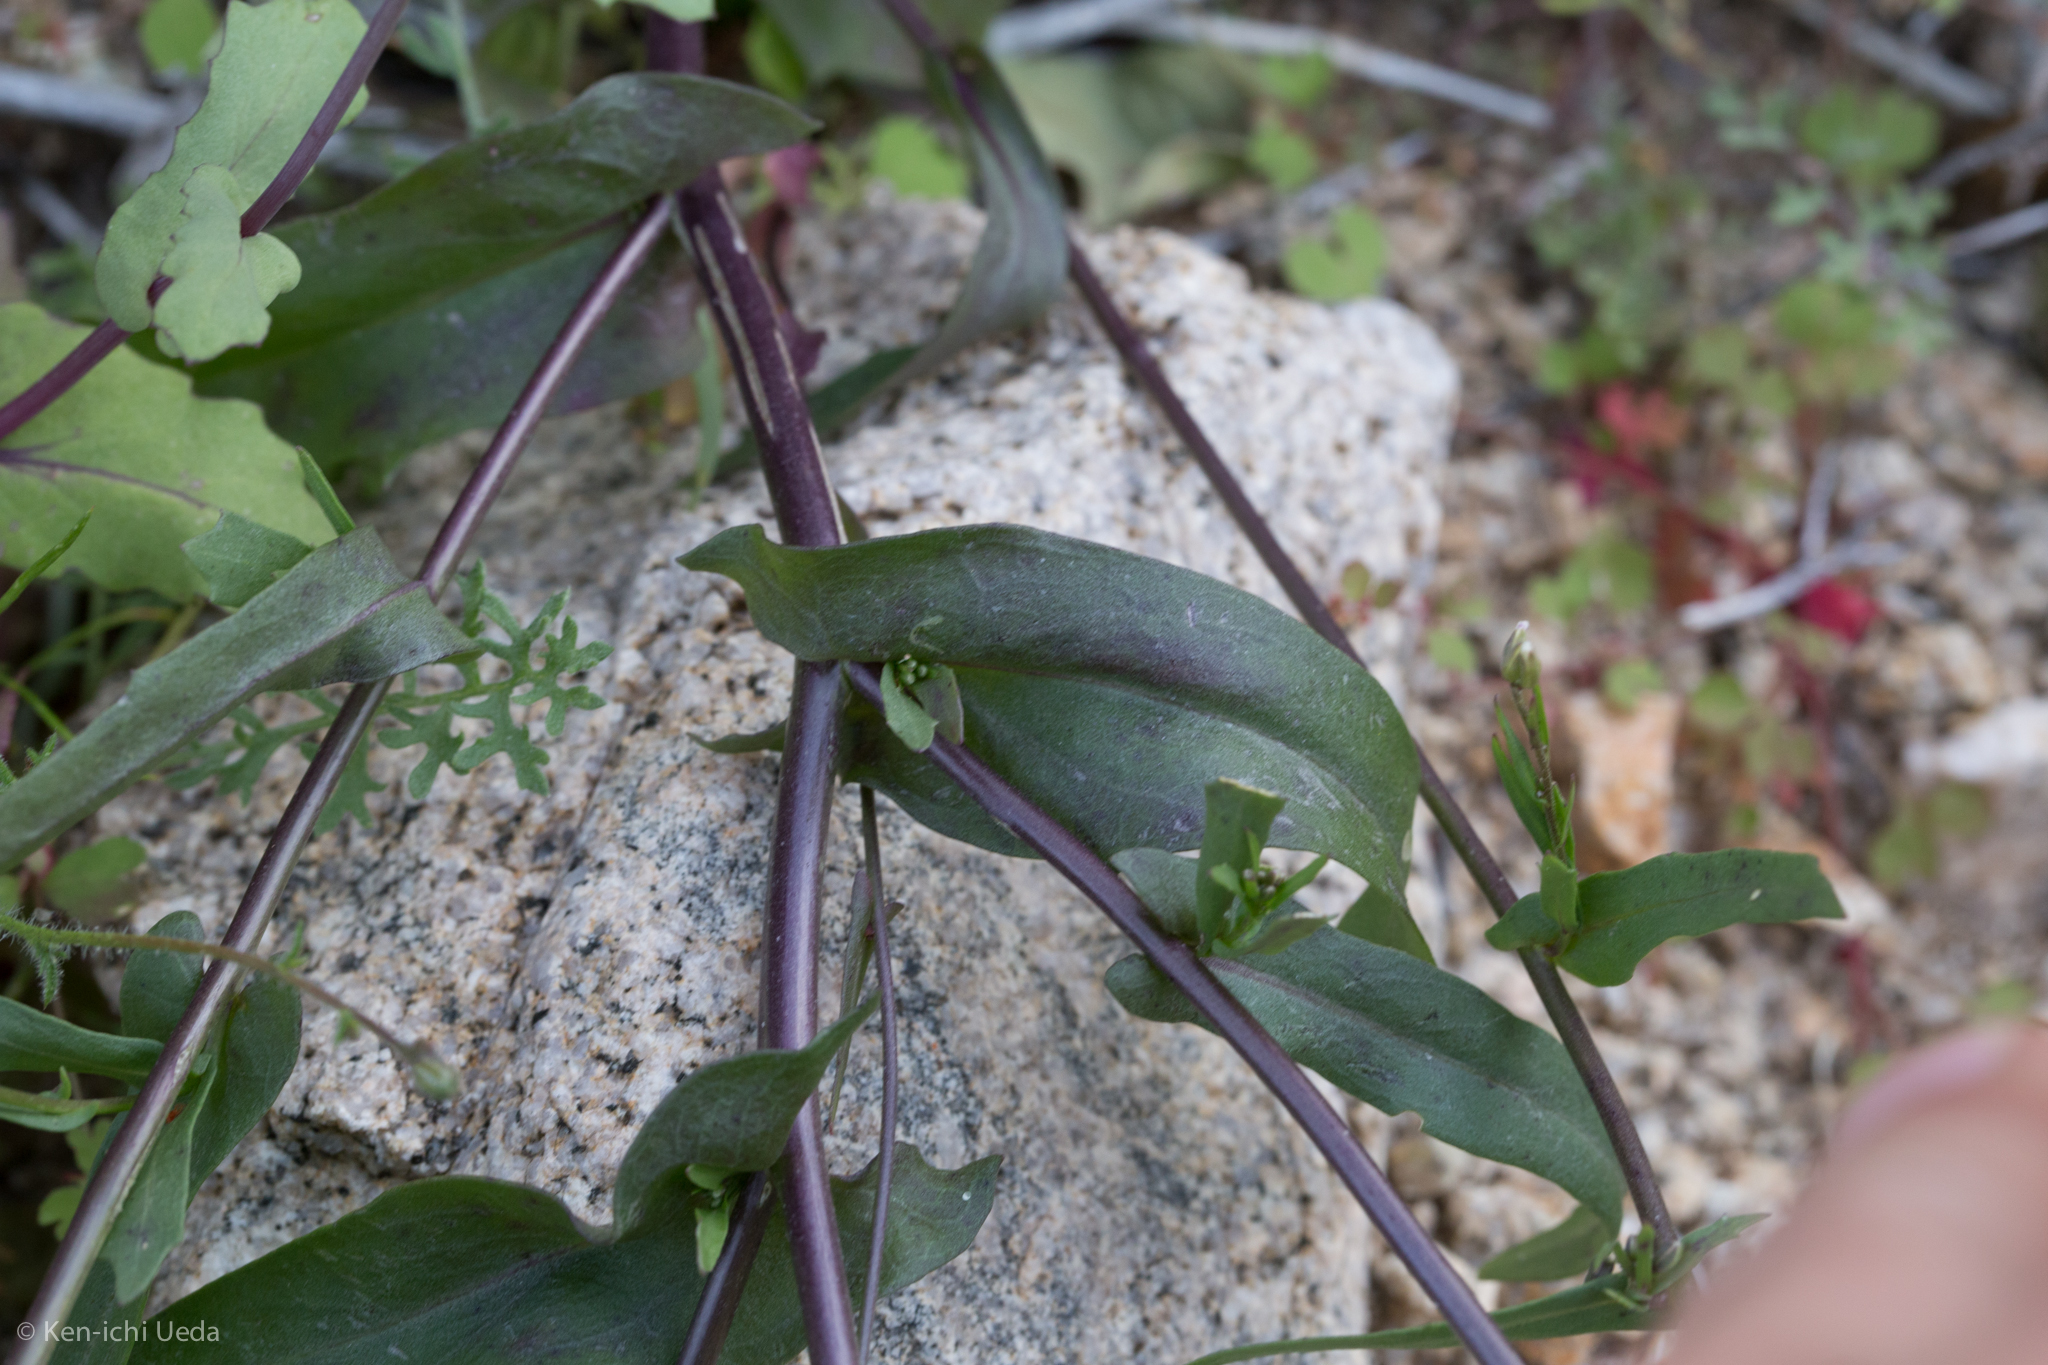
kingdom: Plantae
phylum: Tracheophyta
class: Magnoliopsida
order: Brassicales
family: Brassicaceae
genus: Streptanthus
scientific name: Streptanthus cooperi
